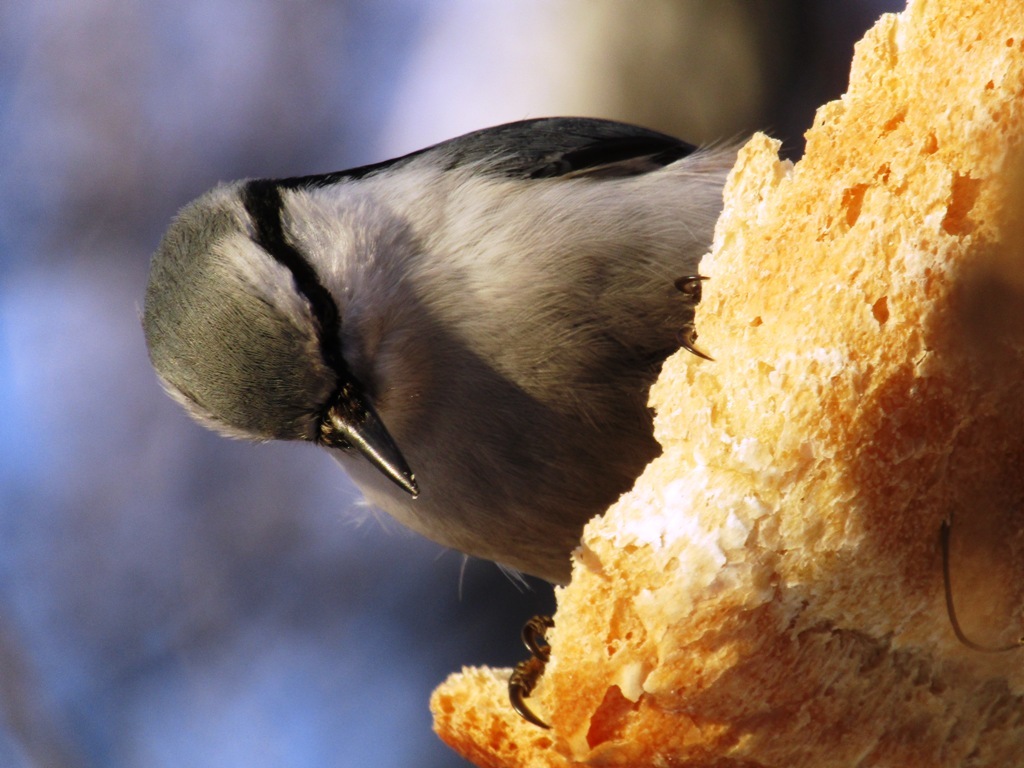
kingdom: Animalia
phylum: Chordata
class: Aves
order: Passeriformes
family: Sittidae
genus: Sitta
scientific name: Sitta europaea
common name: Eurasian nuthatch
